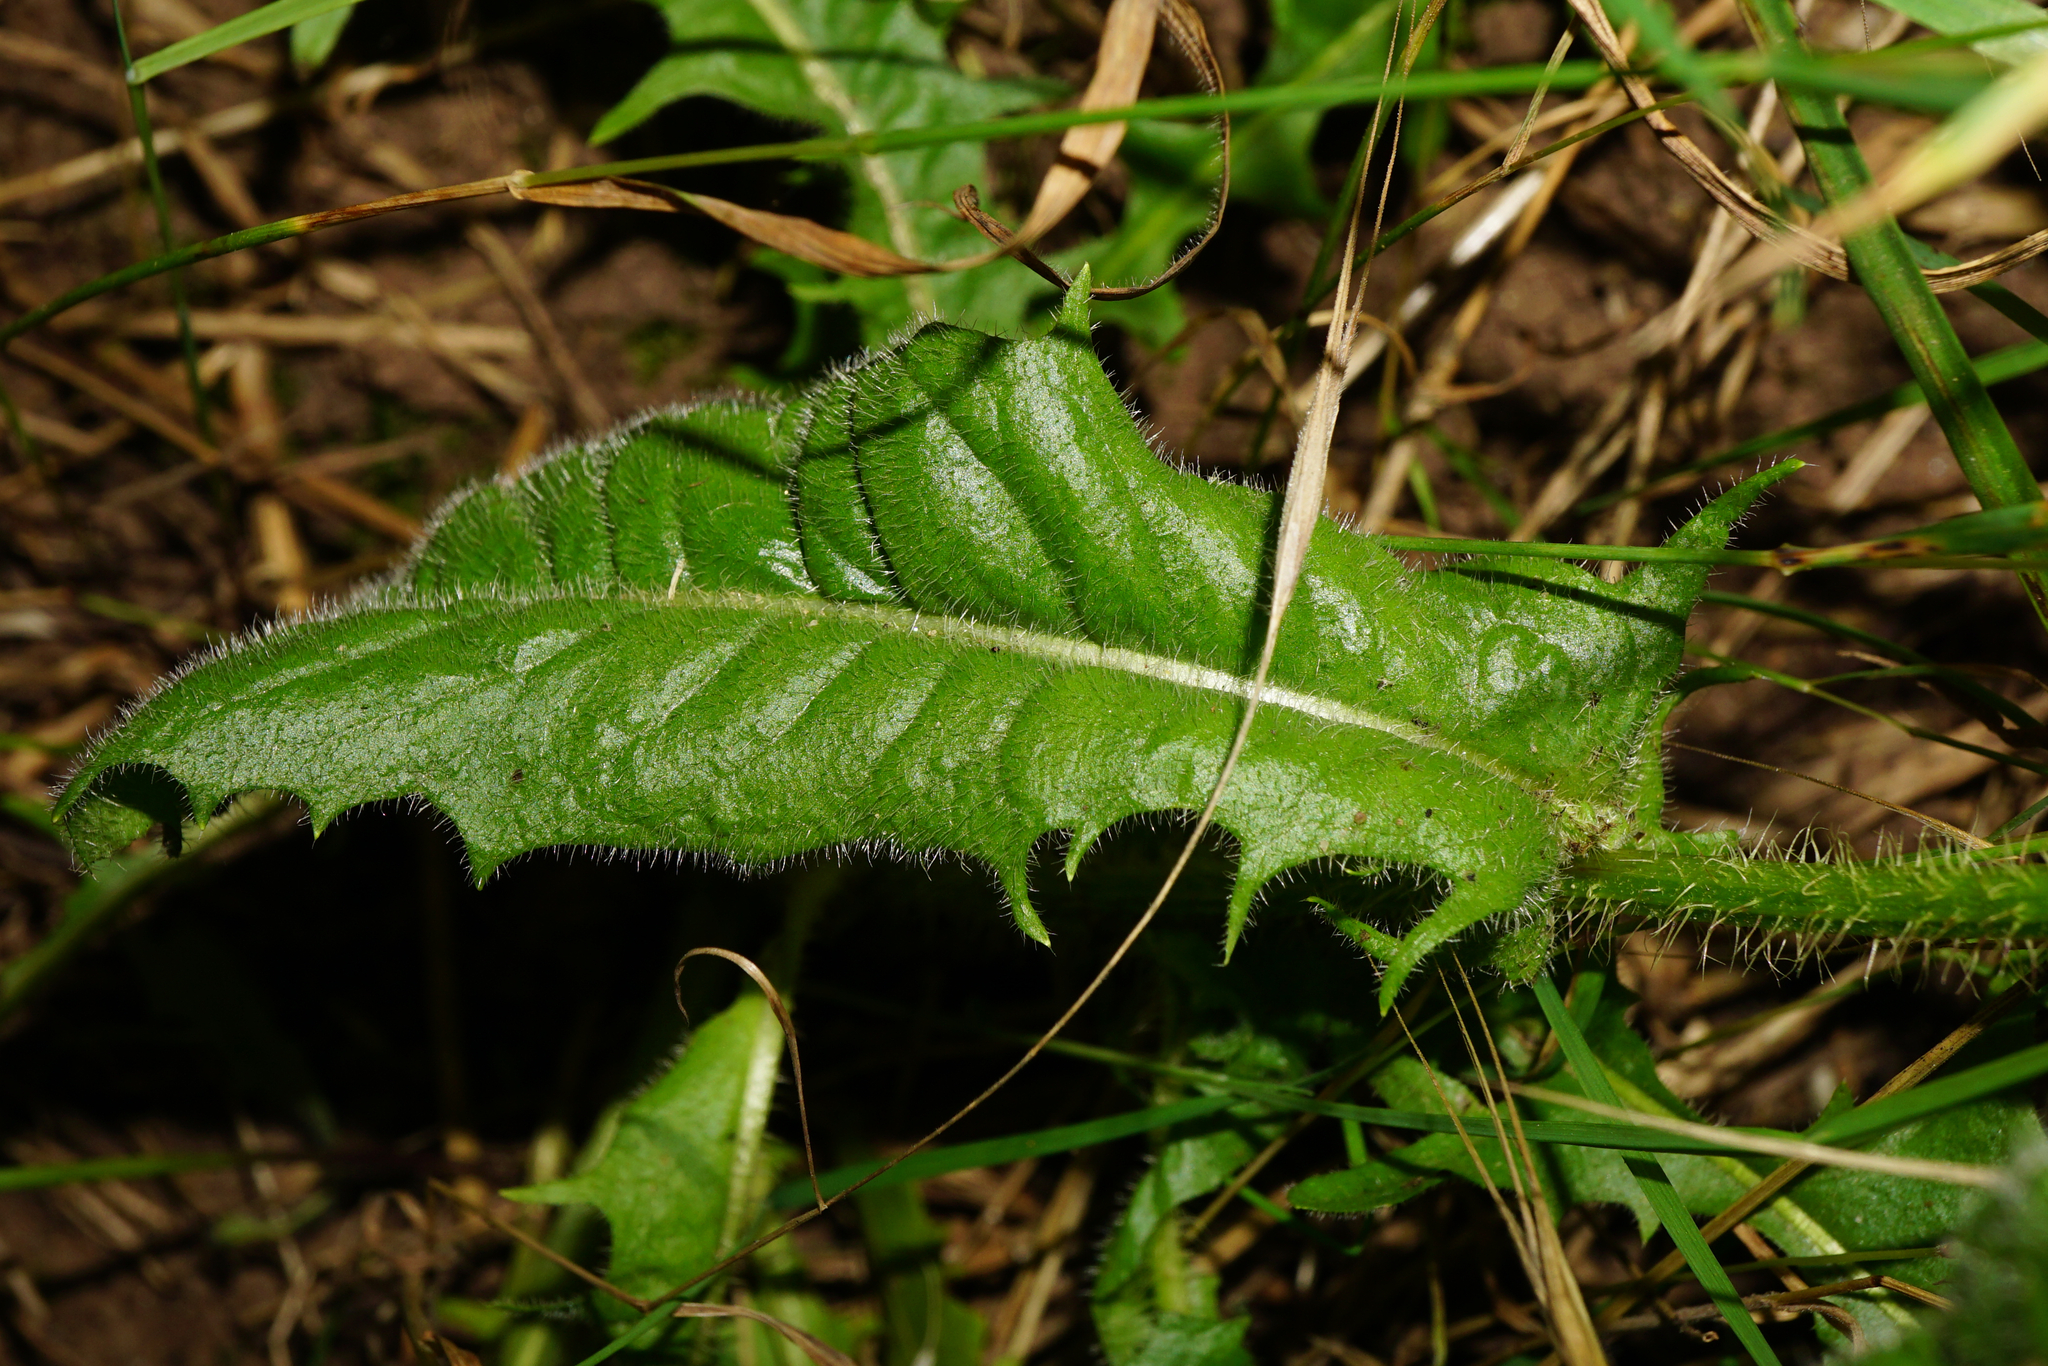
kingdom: Plantae
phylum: Tracheophyta
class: Magnoliopsida
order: Asterales
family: Asteraceae
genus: Crepis
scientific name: Crepis setosa
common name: Bristly hawk's-beard
